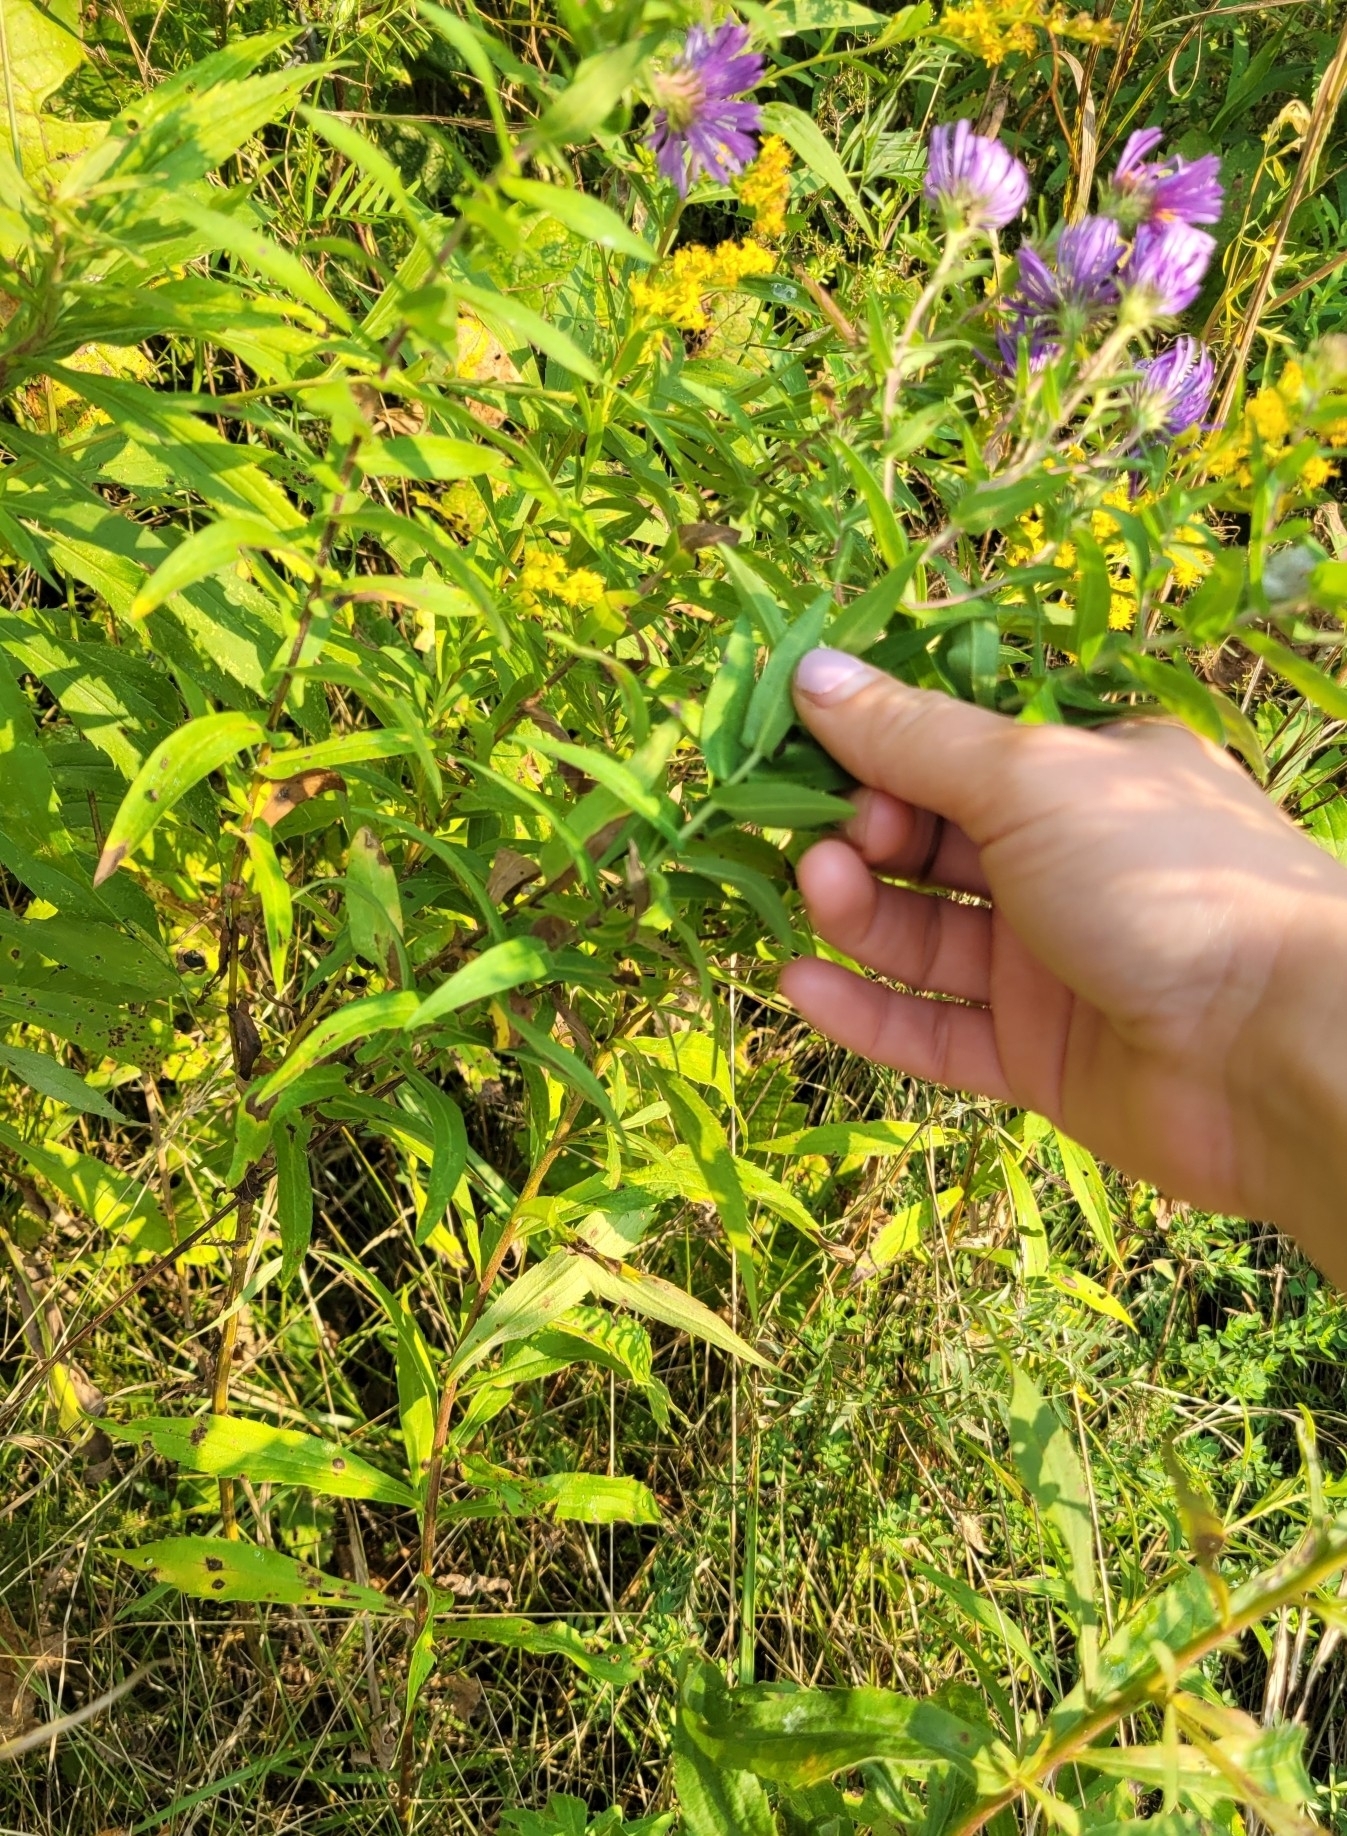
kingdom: Plantae
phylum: Tracheophyta
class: Magnoliopsida
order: Asterales
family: Asteraceae
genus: Symphyotrichum
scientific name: Symphyotrichum novae-angliae
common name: Michaelmas daisy
